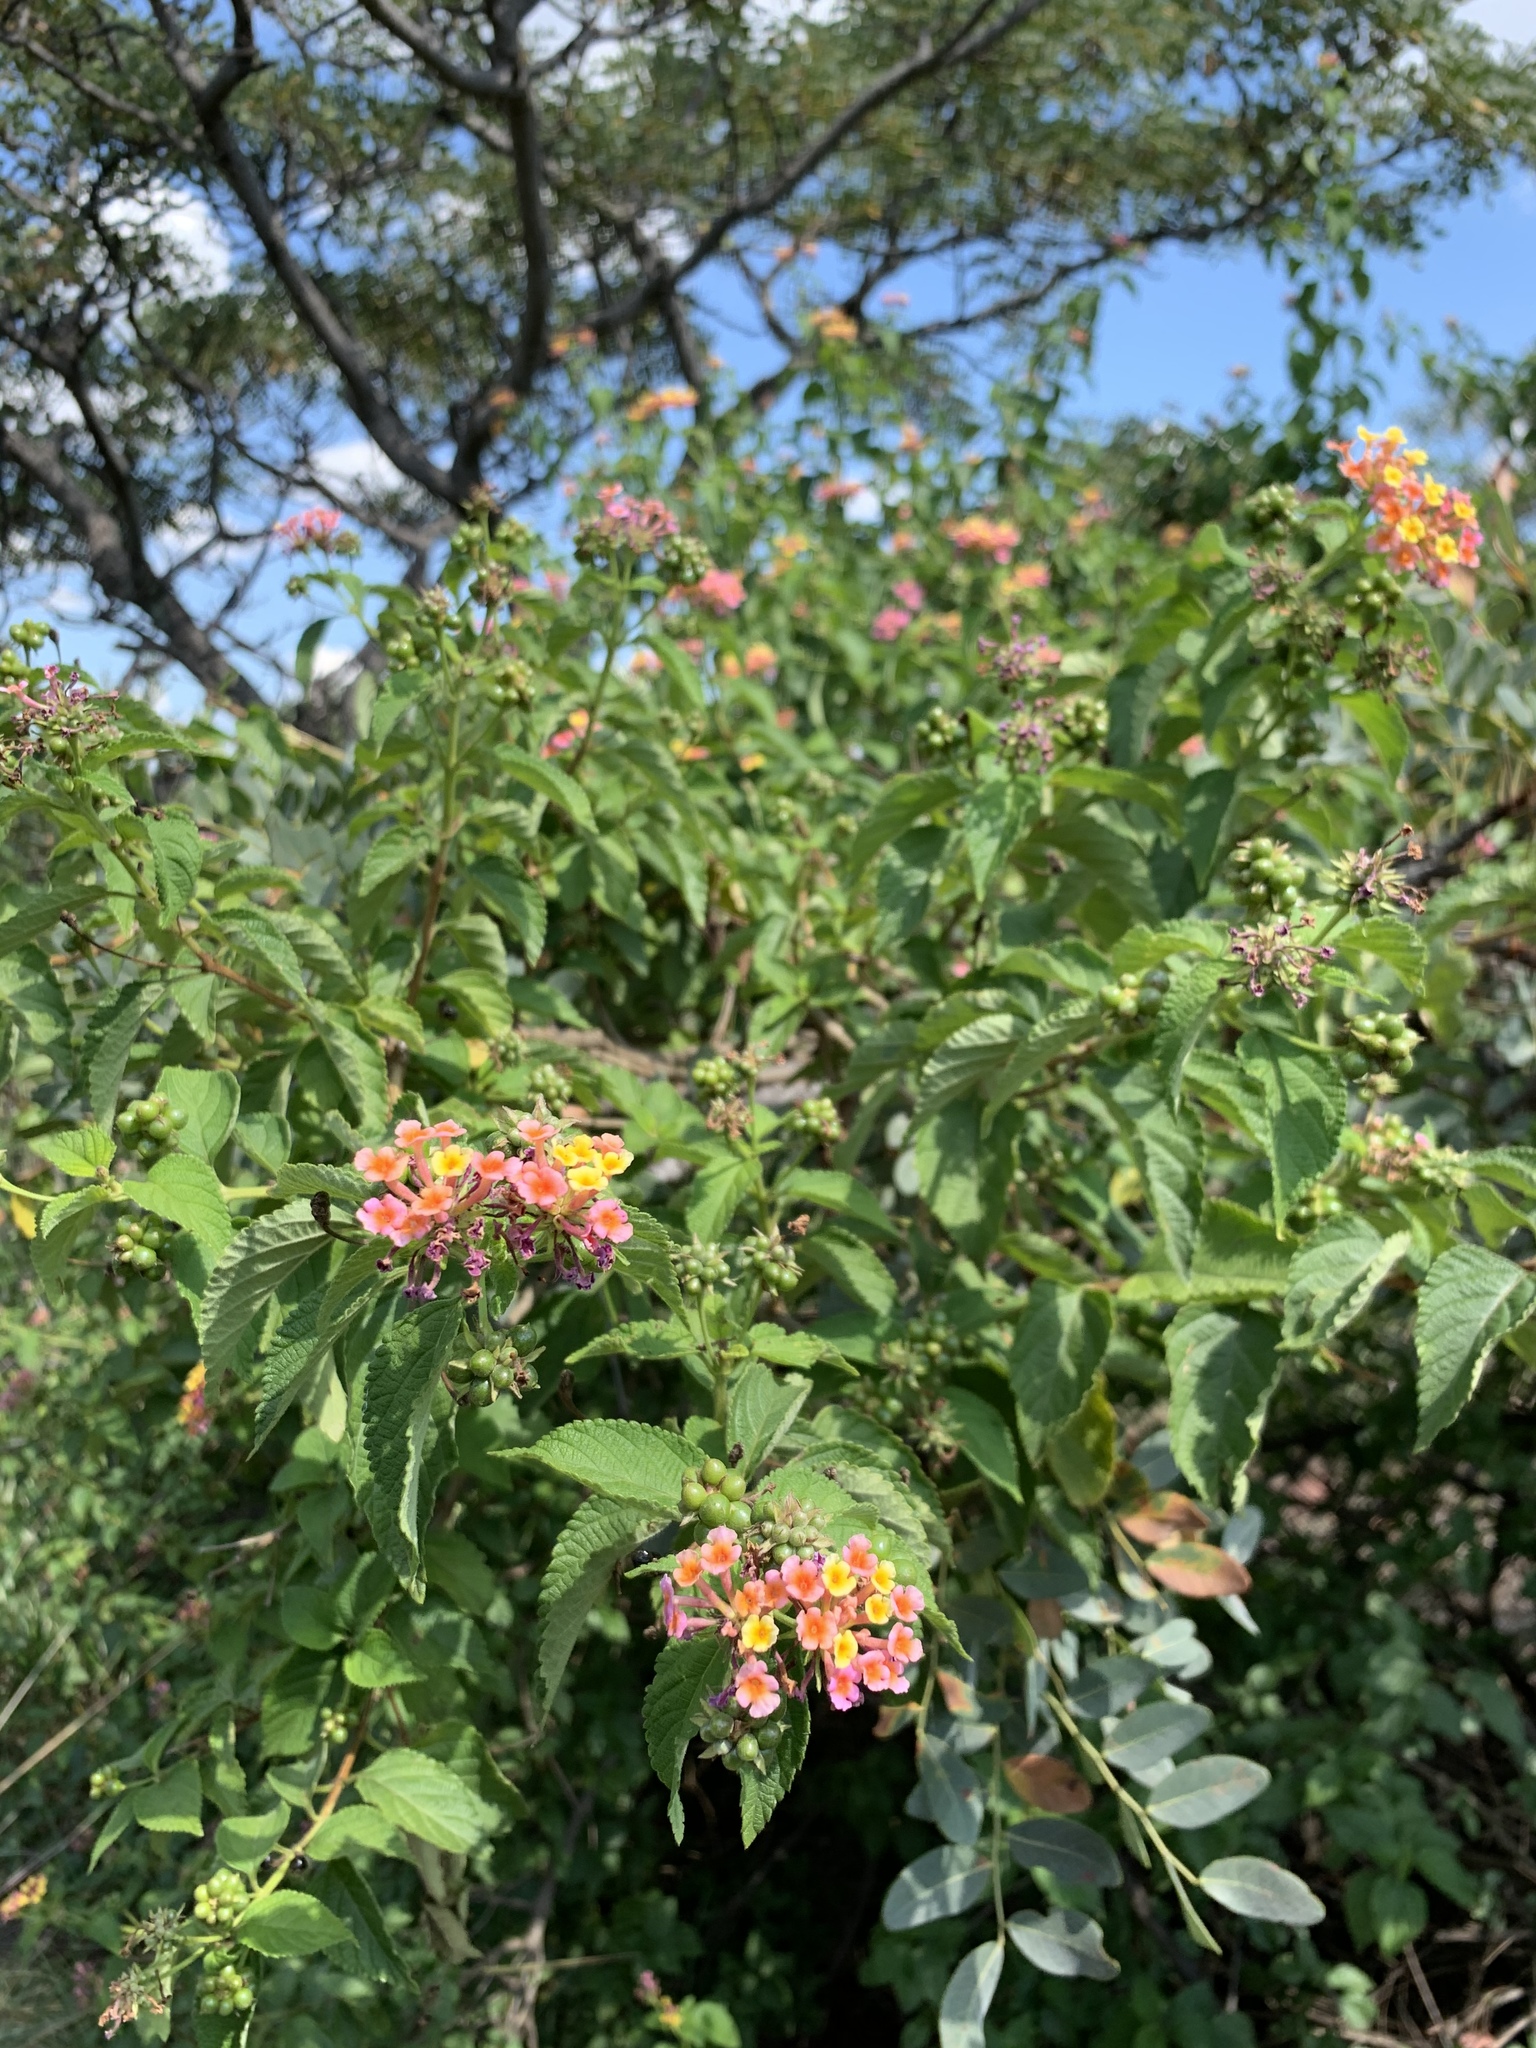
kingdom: Plantae
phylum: Tracheophyta
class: Magnoliopsida
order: Lamiales
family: Verbenaceae
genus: Lantana
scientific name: Lantana camara
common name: Lantana
